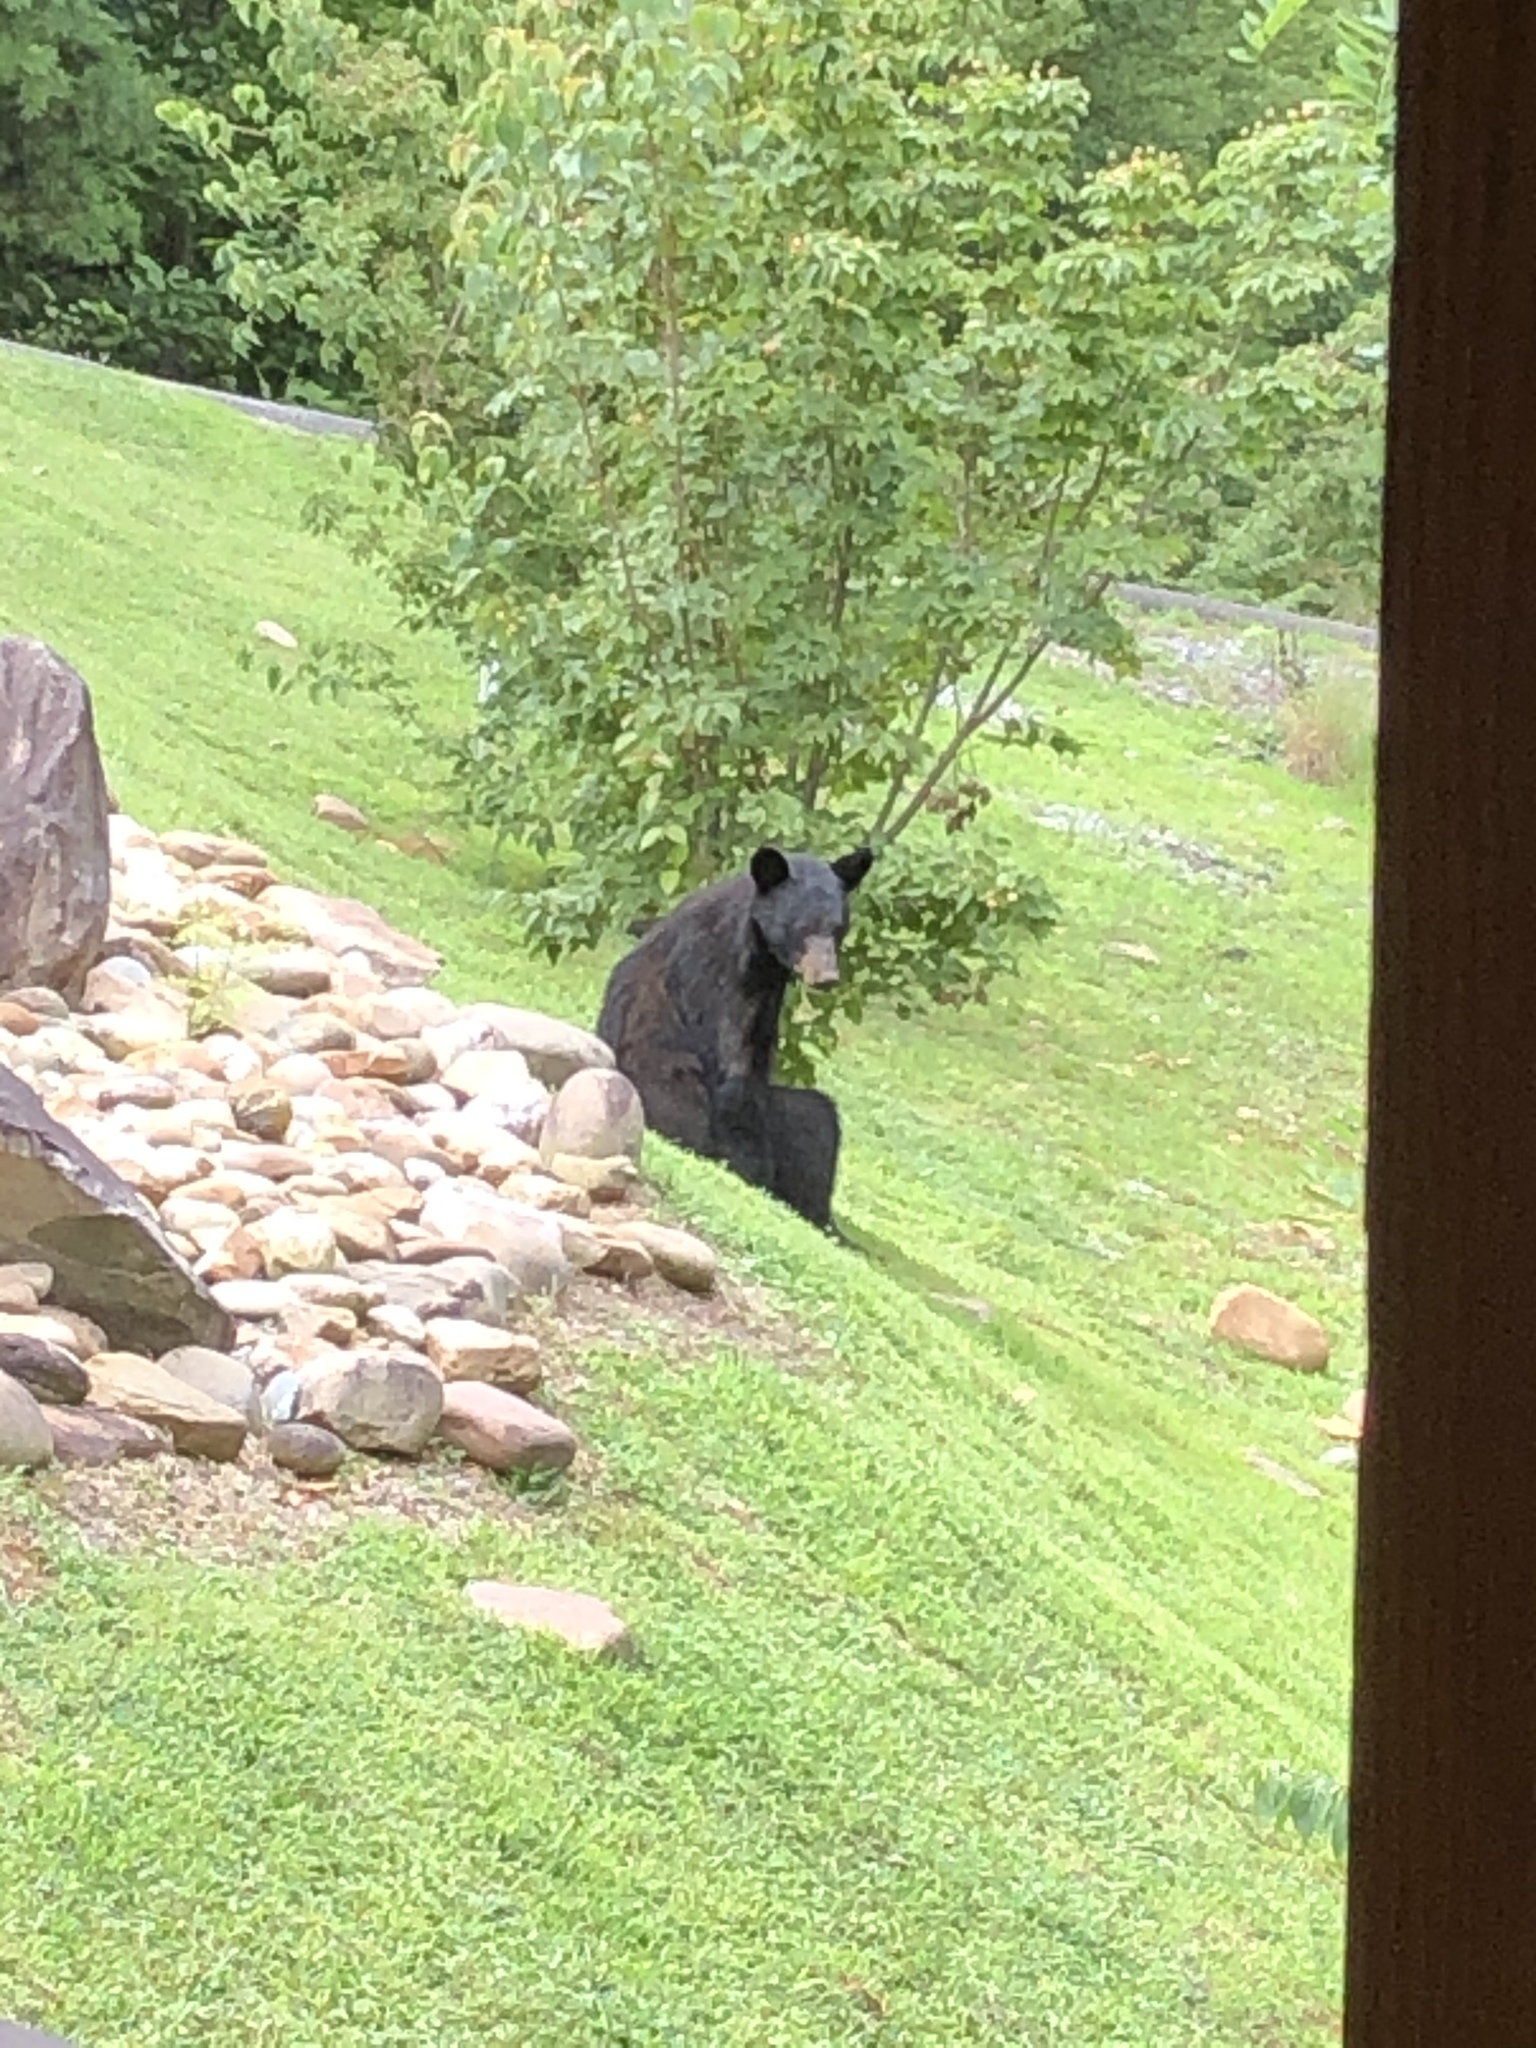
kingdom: Animalia
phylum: Chordata
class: Mammalia
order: Carnivora
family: Ursidae
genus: Ursus
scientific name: Ursus americanus
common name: American black bear
